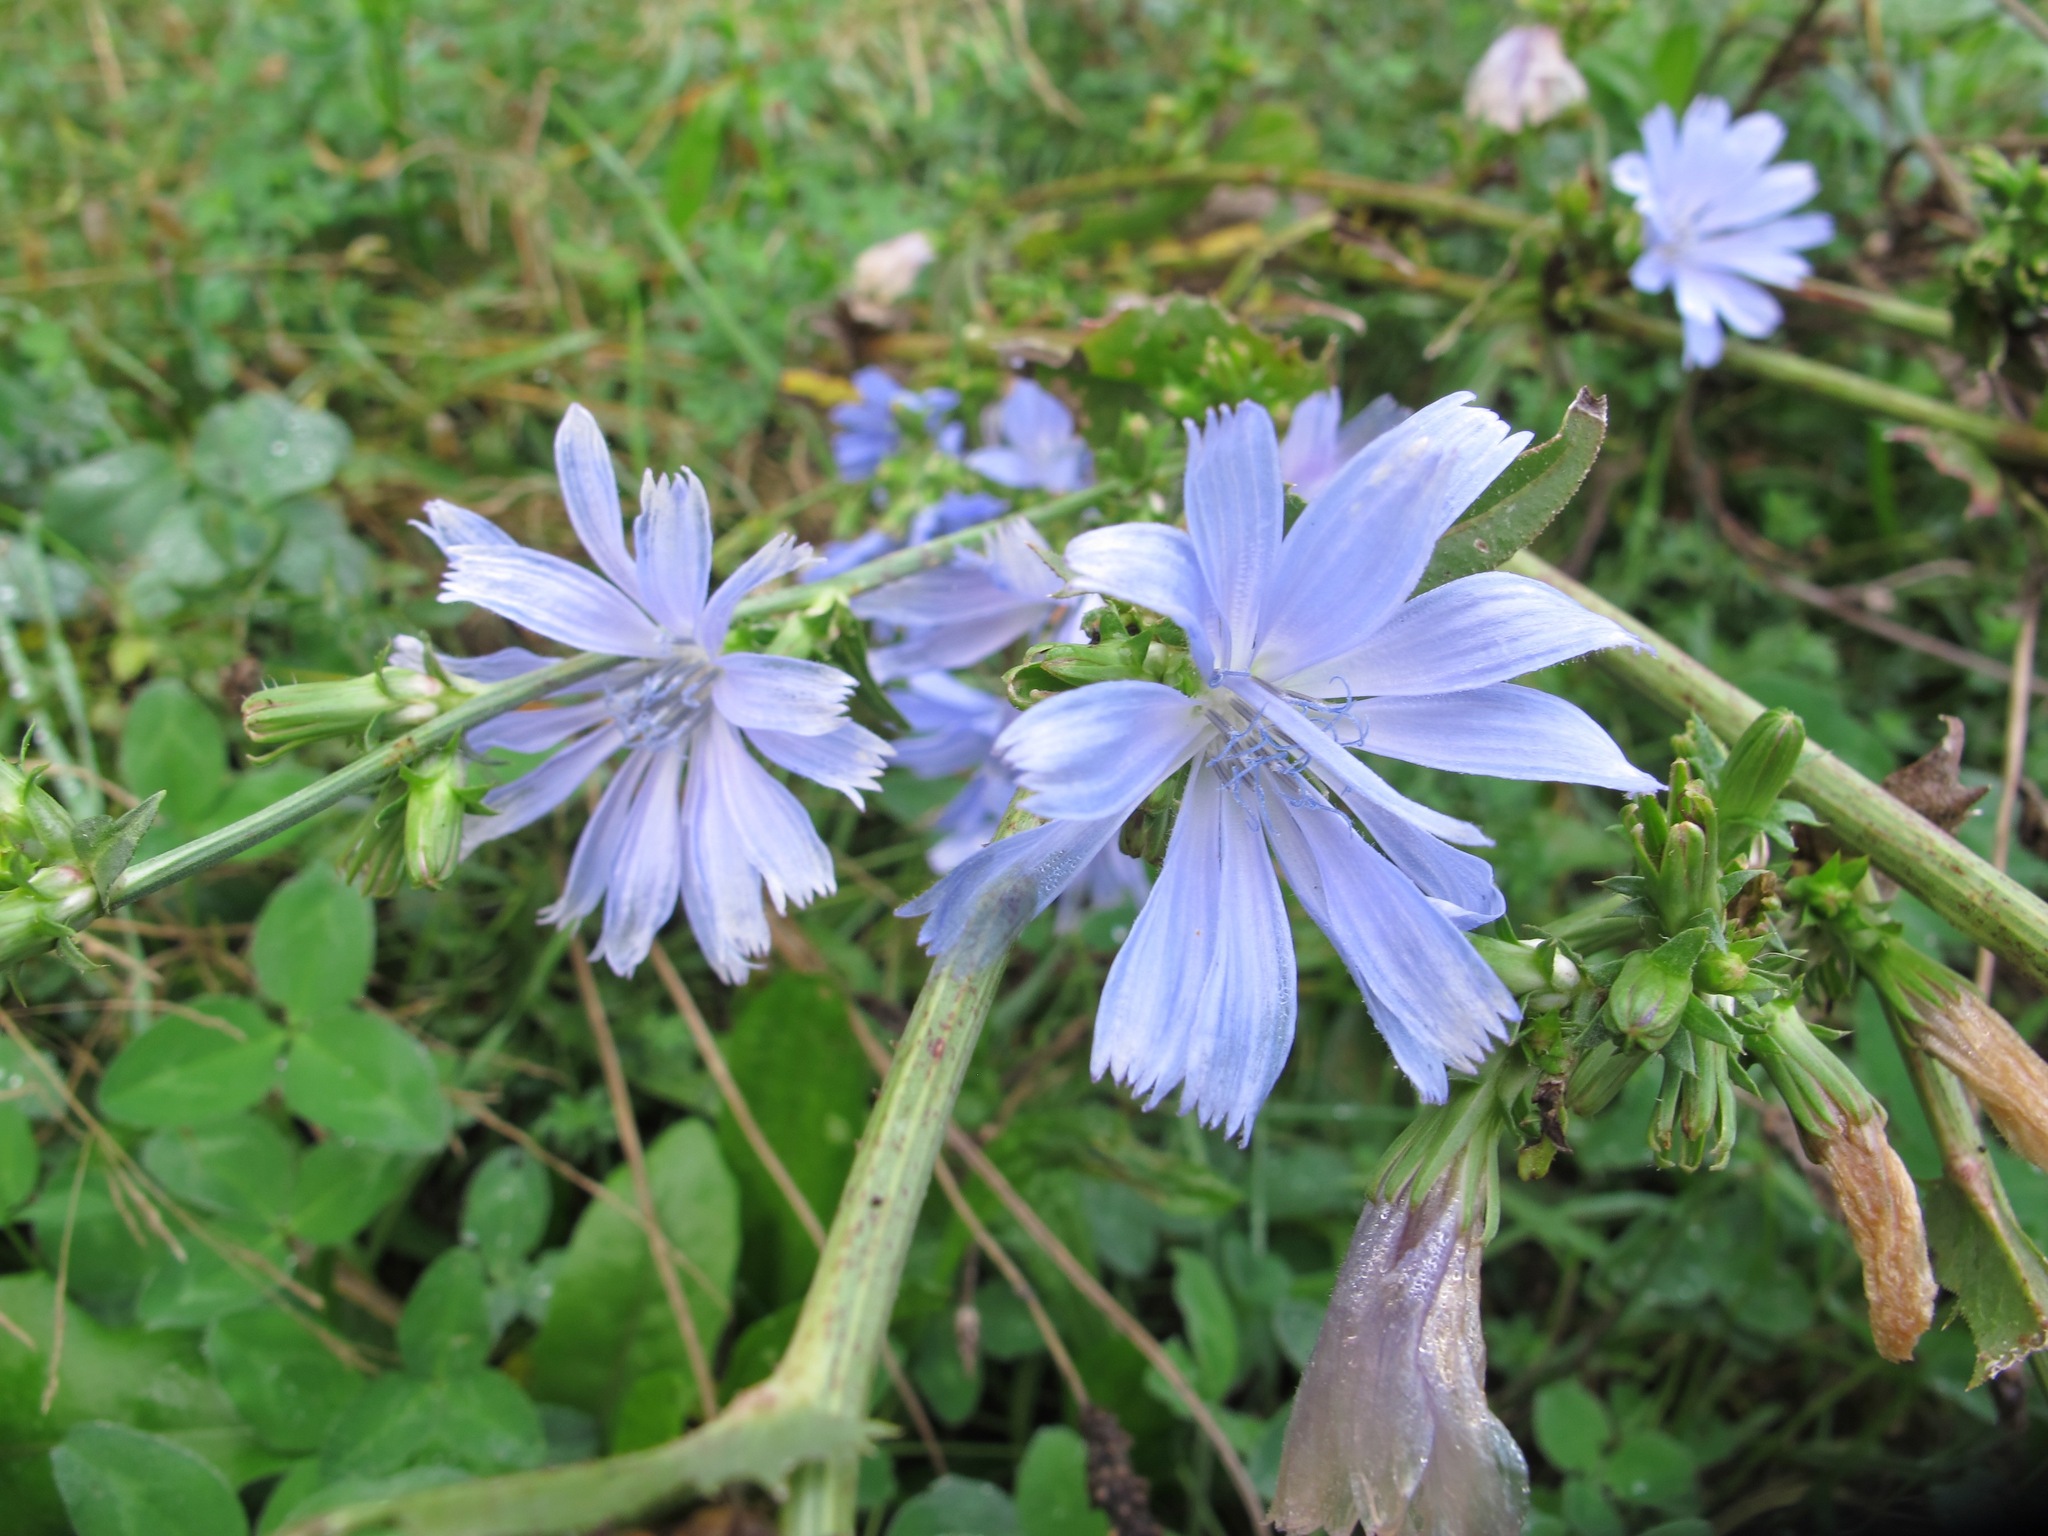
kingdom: Plantae
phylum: Tracheophyta
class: Magnoliopsida
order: Asterales
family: Asteraceae
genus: Cichorium
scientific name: Cichorium intybus
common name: Chicory
